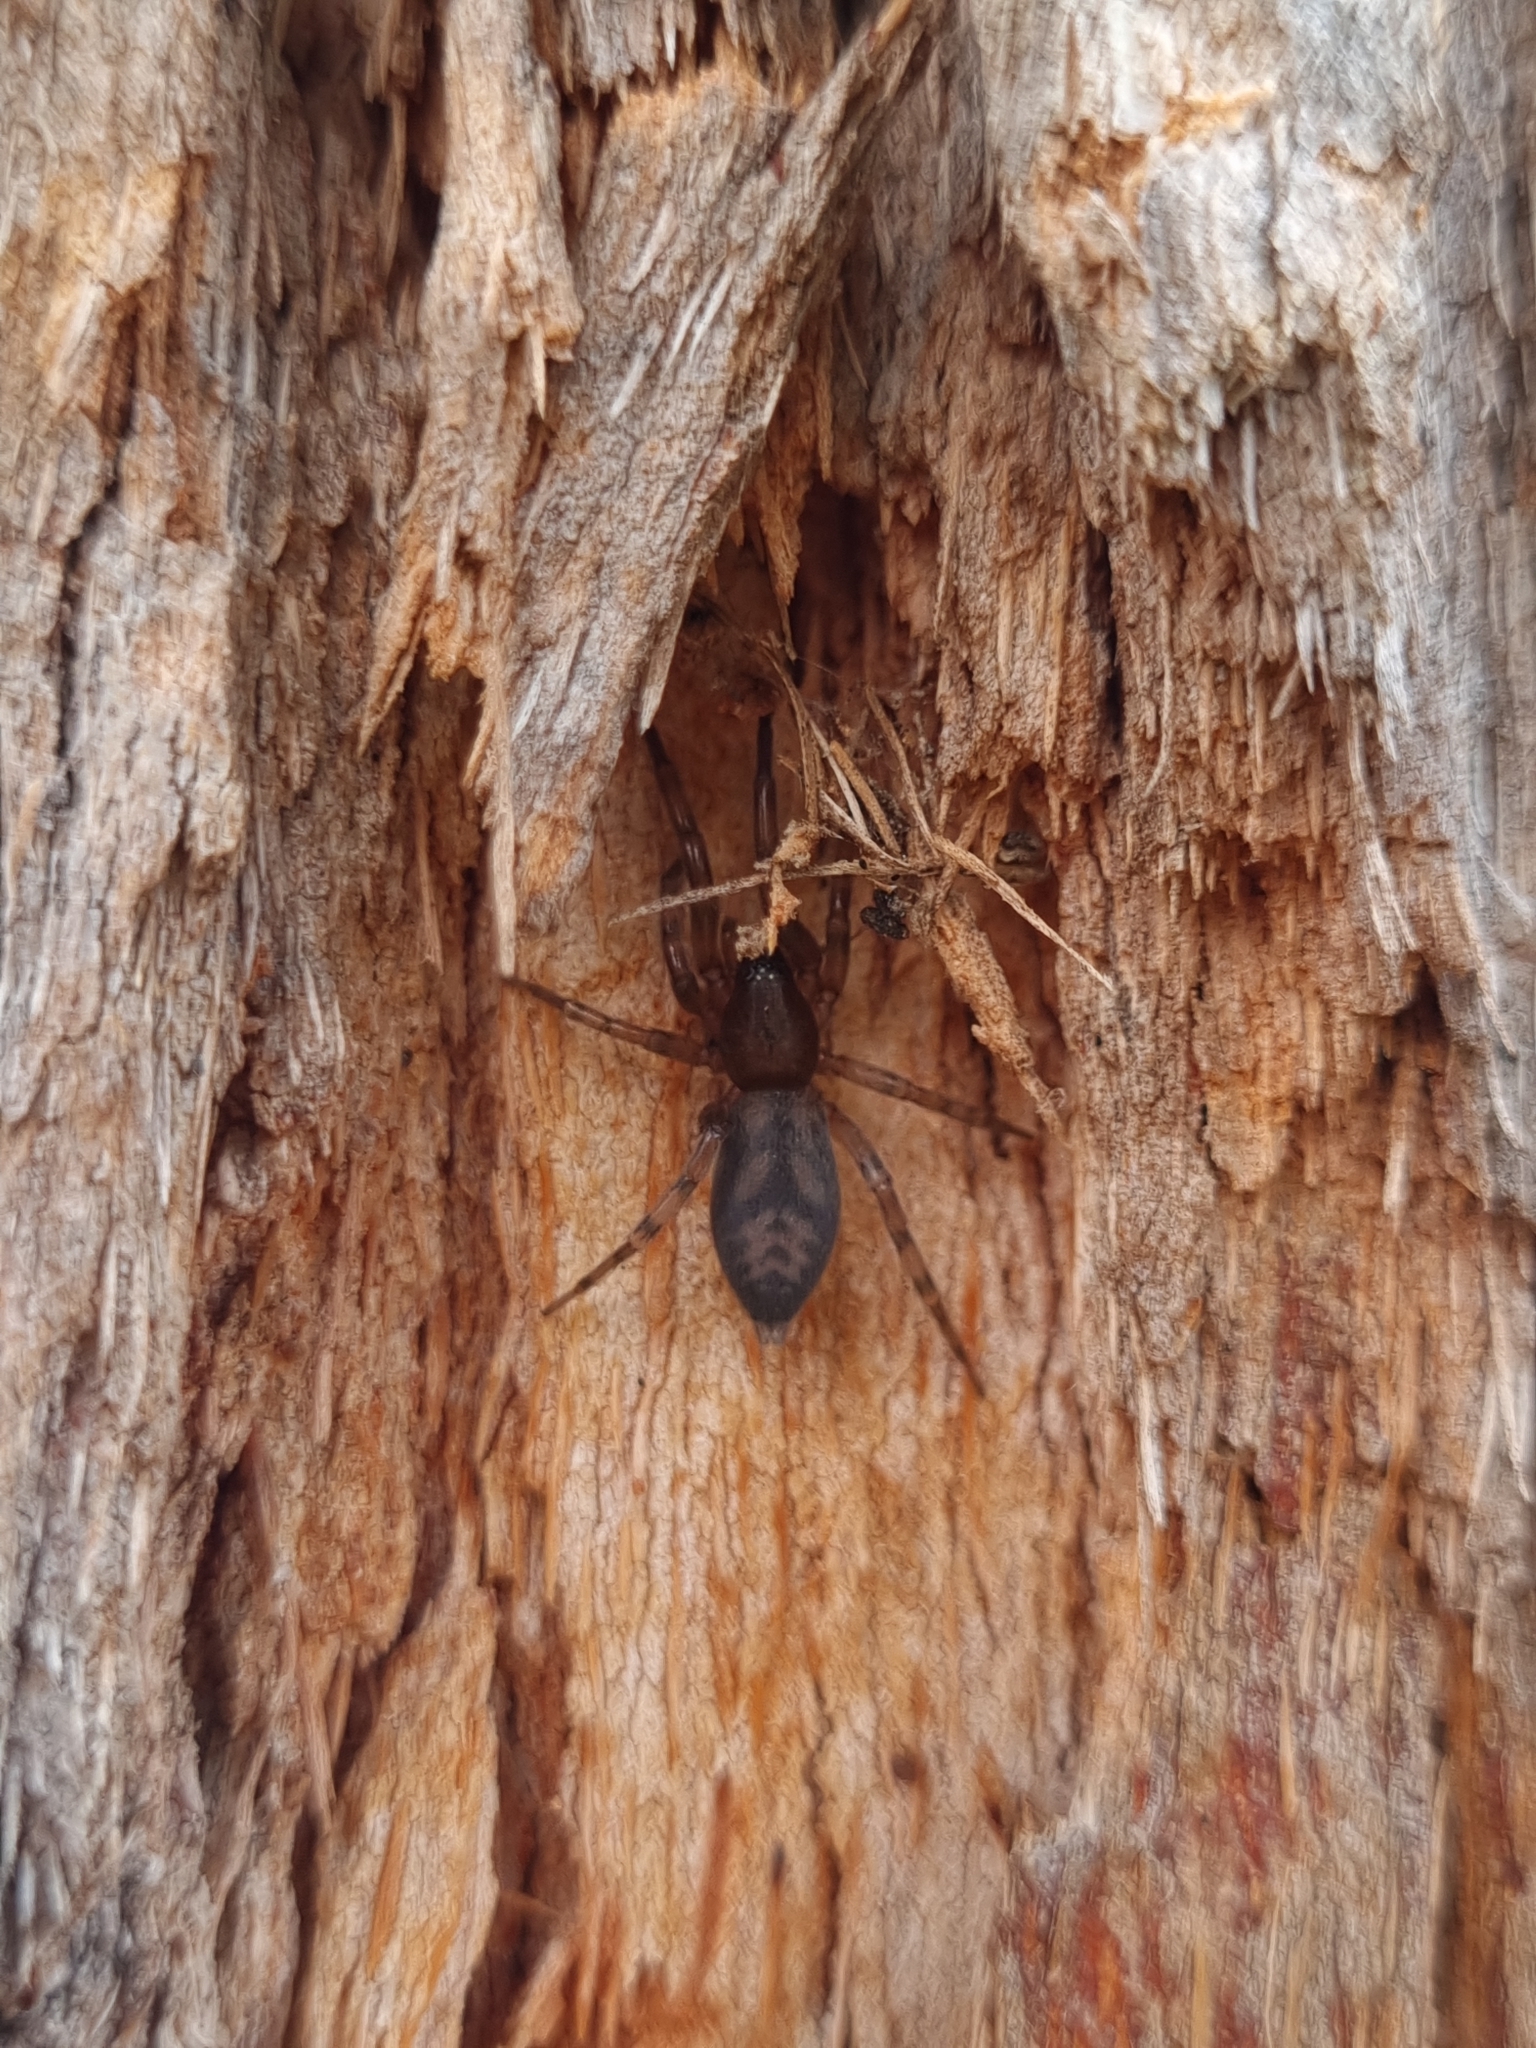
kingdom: Animalia
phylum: Arthropoda
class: Arachnida
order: Araneae
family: Gnaphosidae
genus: Intruda
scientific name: Intruda signata
